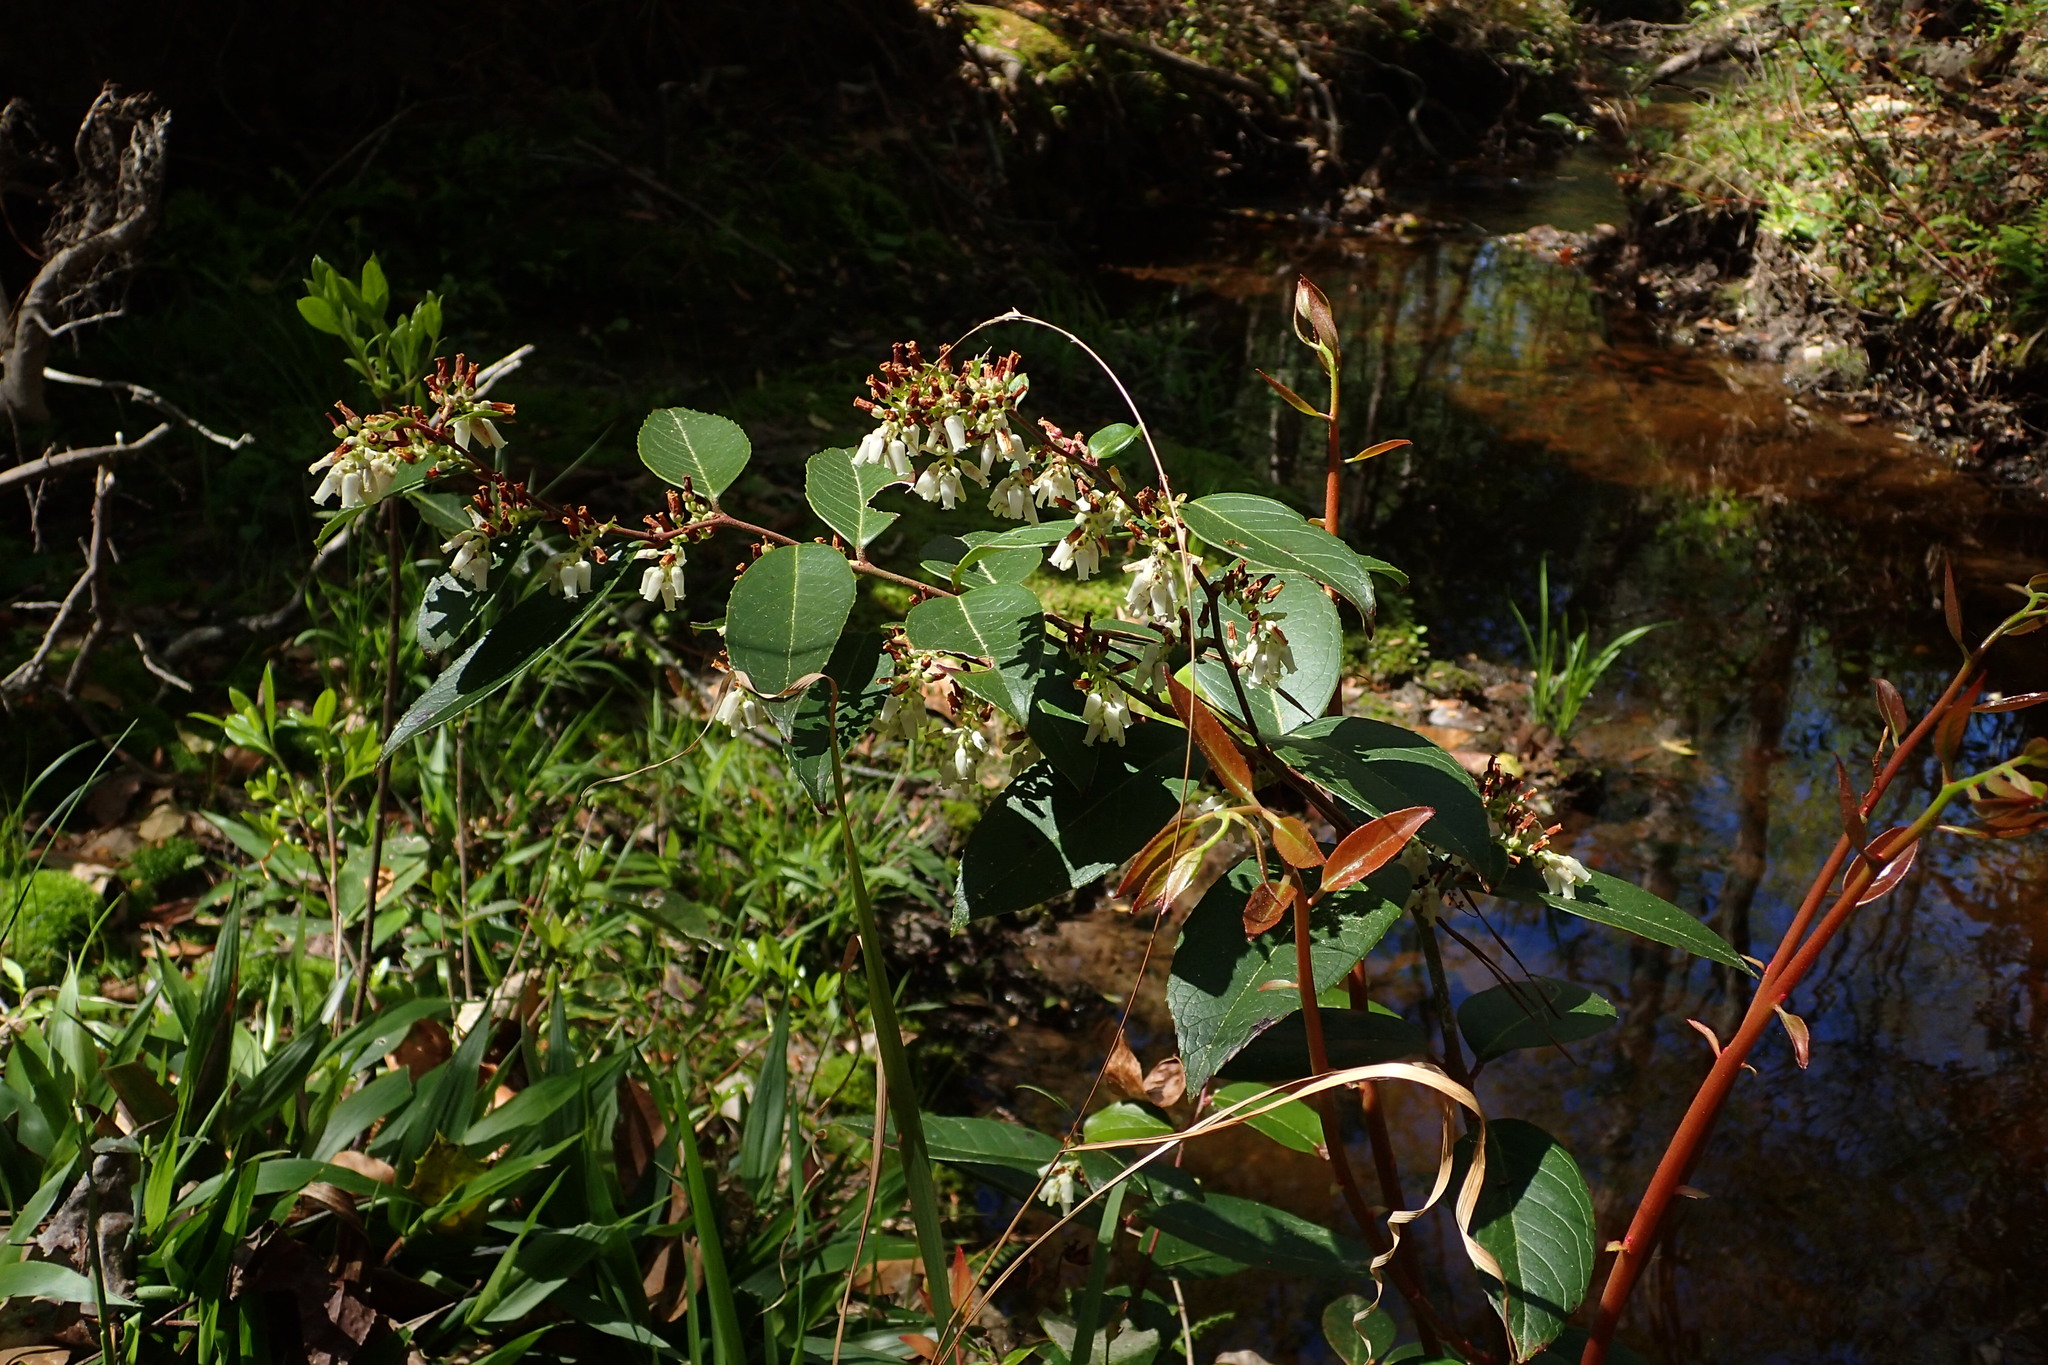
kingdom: Plantae
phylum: Tracheophyta
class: Magnoliopsida
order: Ericales
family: Ericaceae
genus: Leucothoe
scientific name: Leucothoe axillaris
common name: Leucothoe
